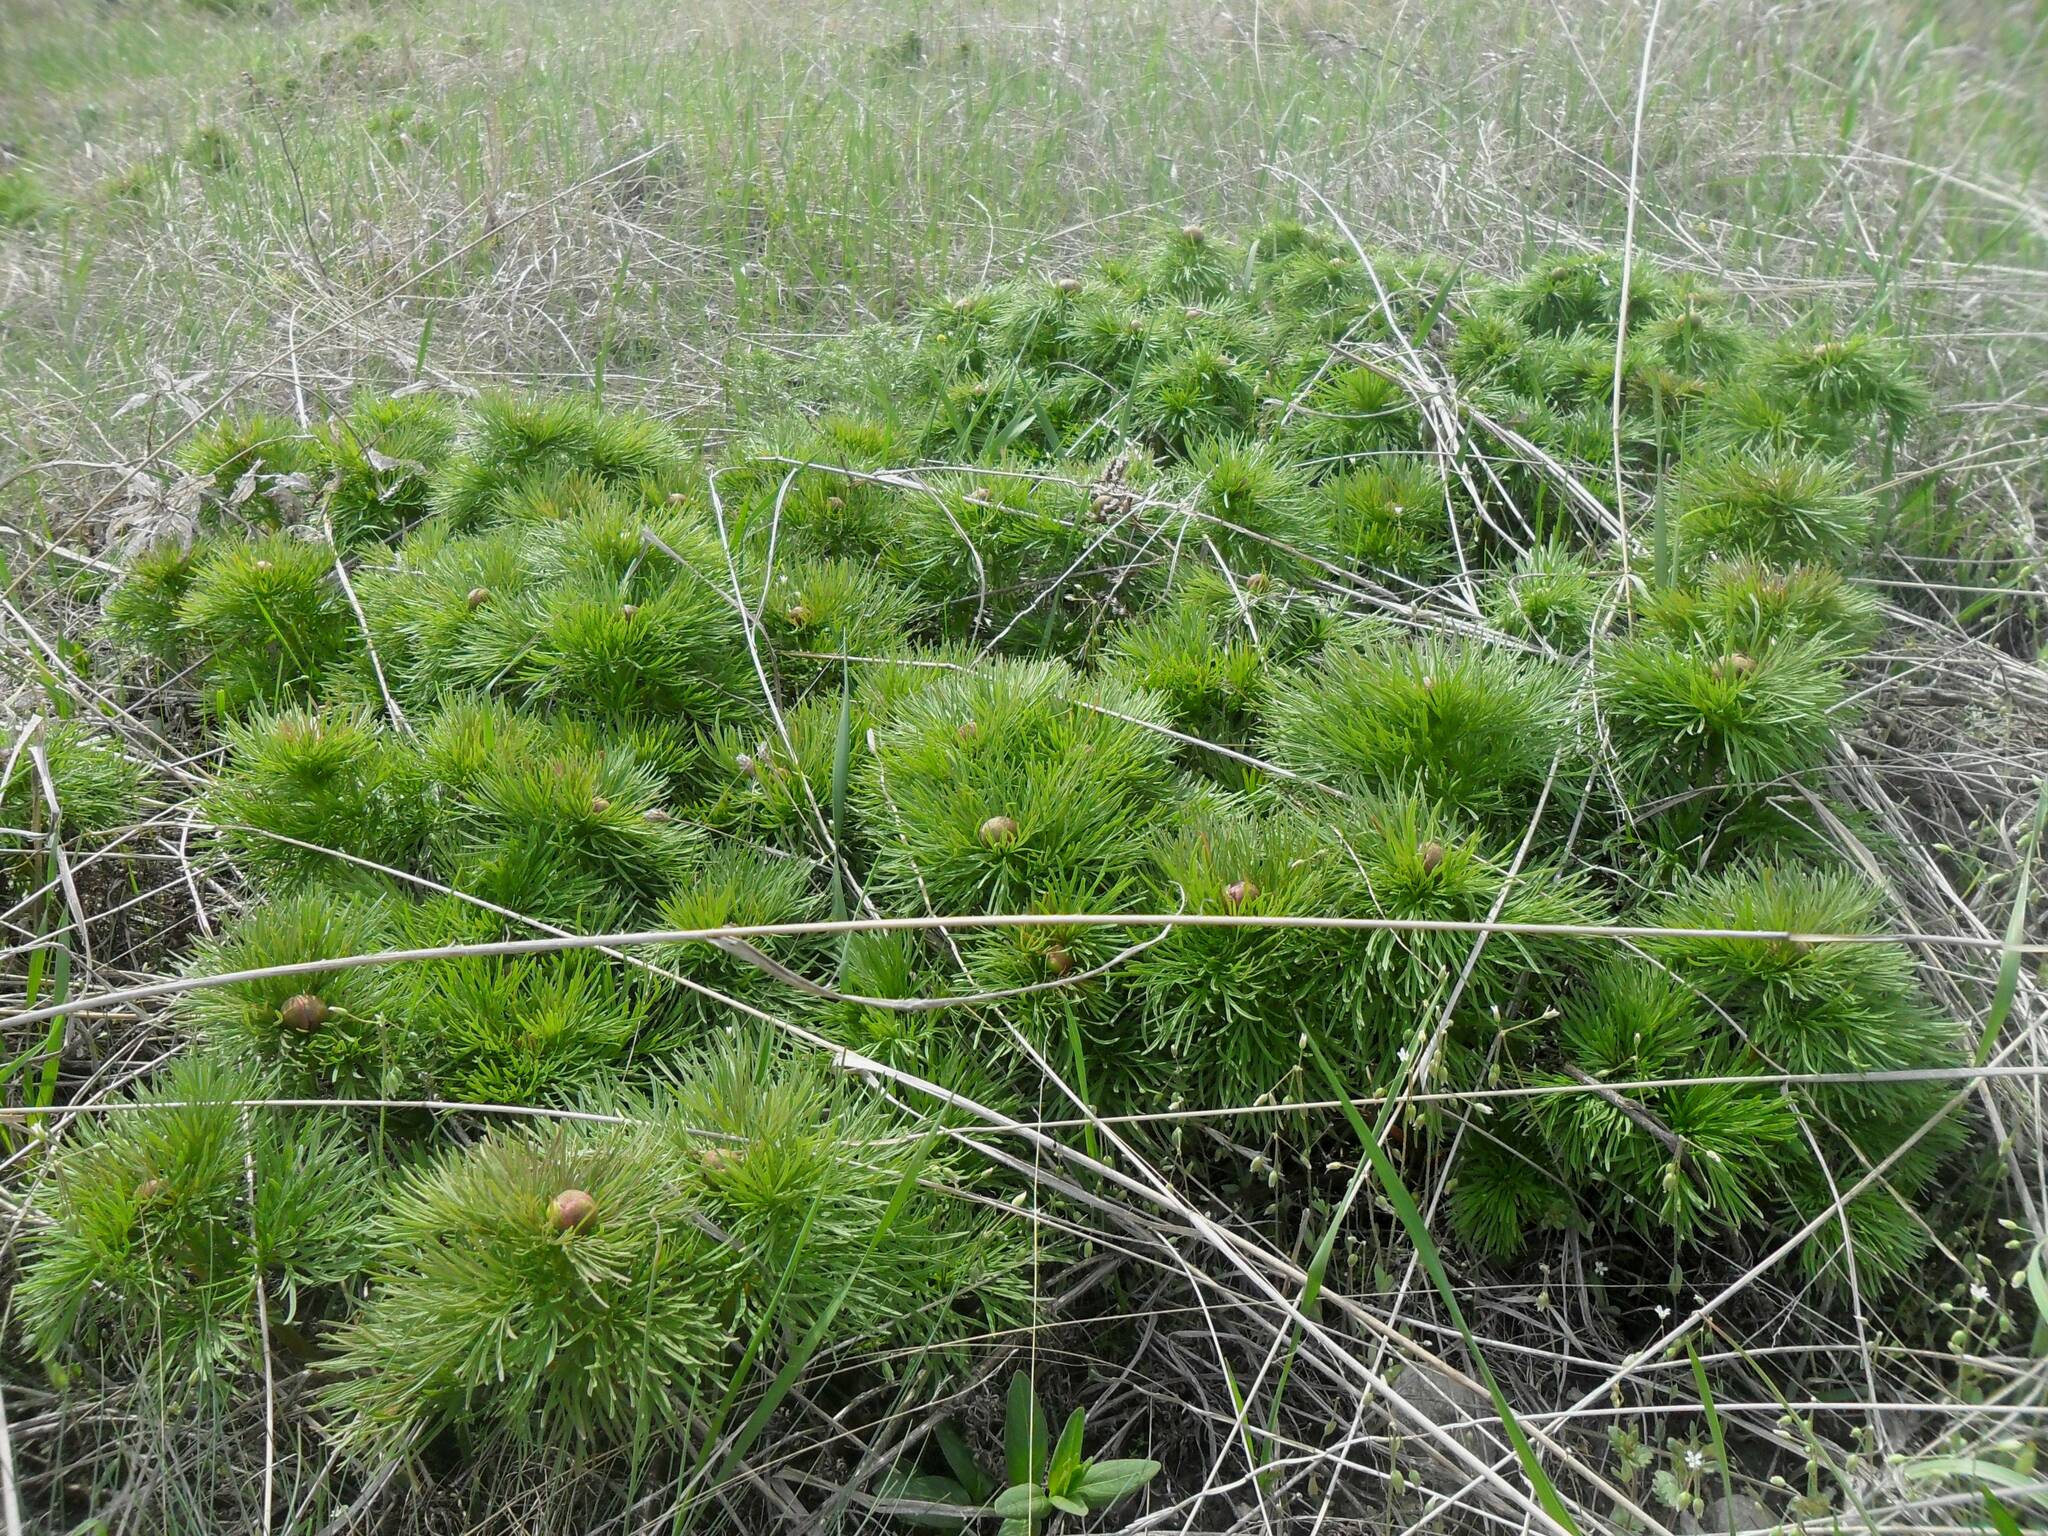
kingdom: Plantae
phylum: Tracheophyta
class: Magnoliopsida
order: Saxifragales
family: Paeoniaceae
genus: Paeonia
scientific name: Paeonia tenuifolia
